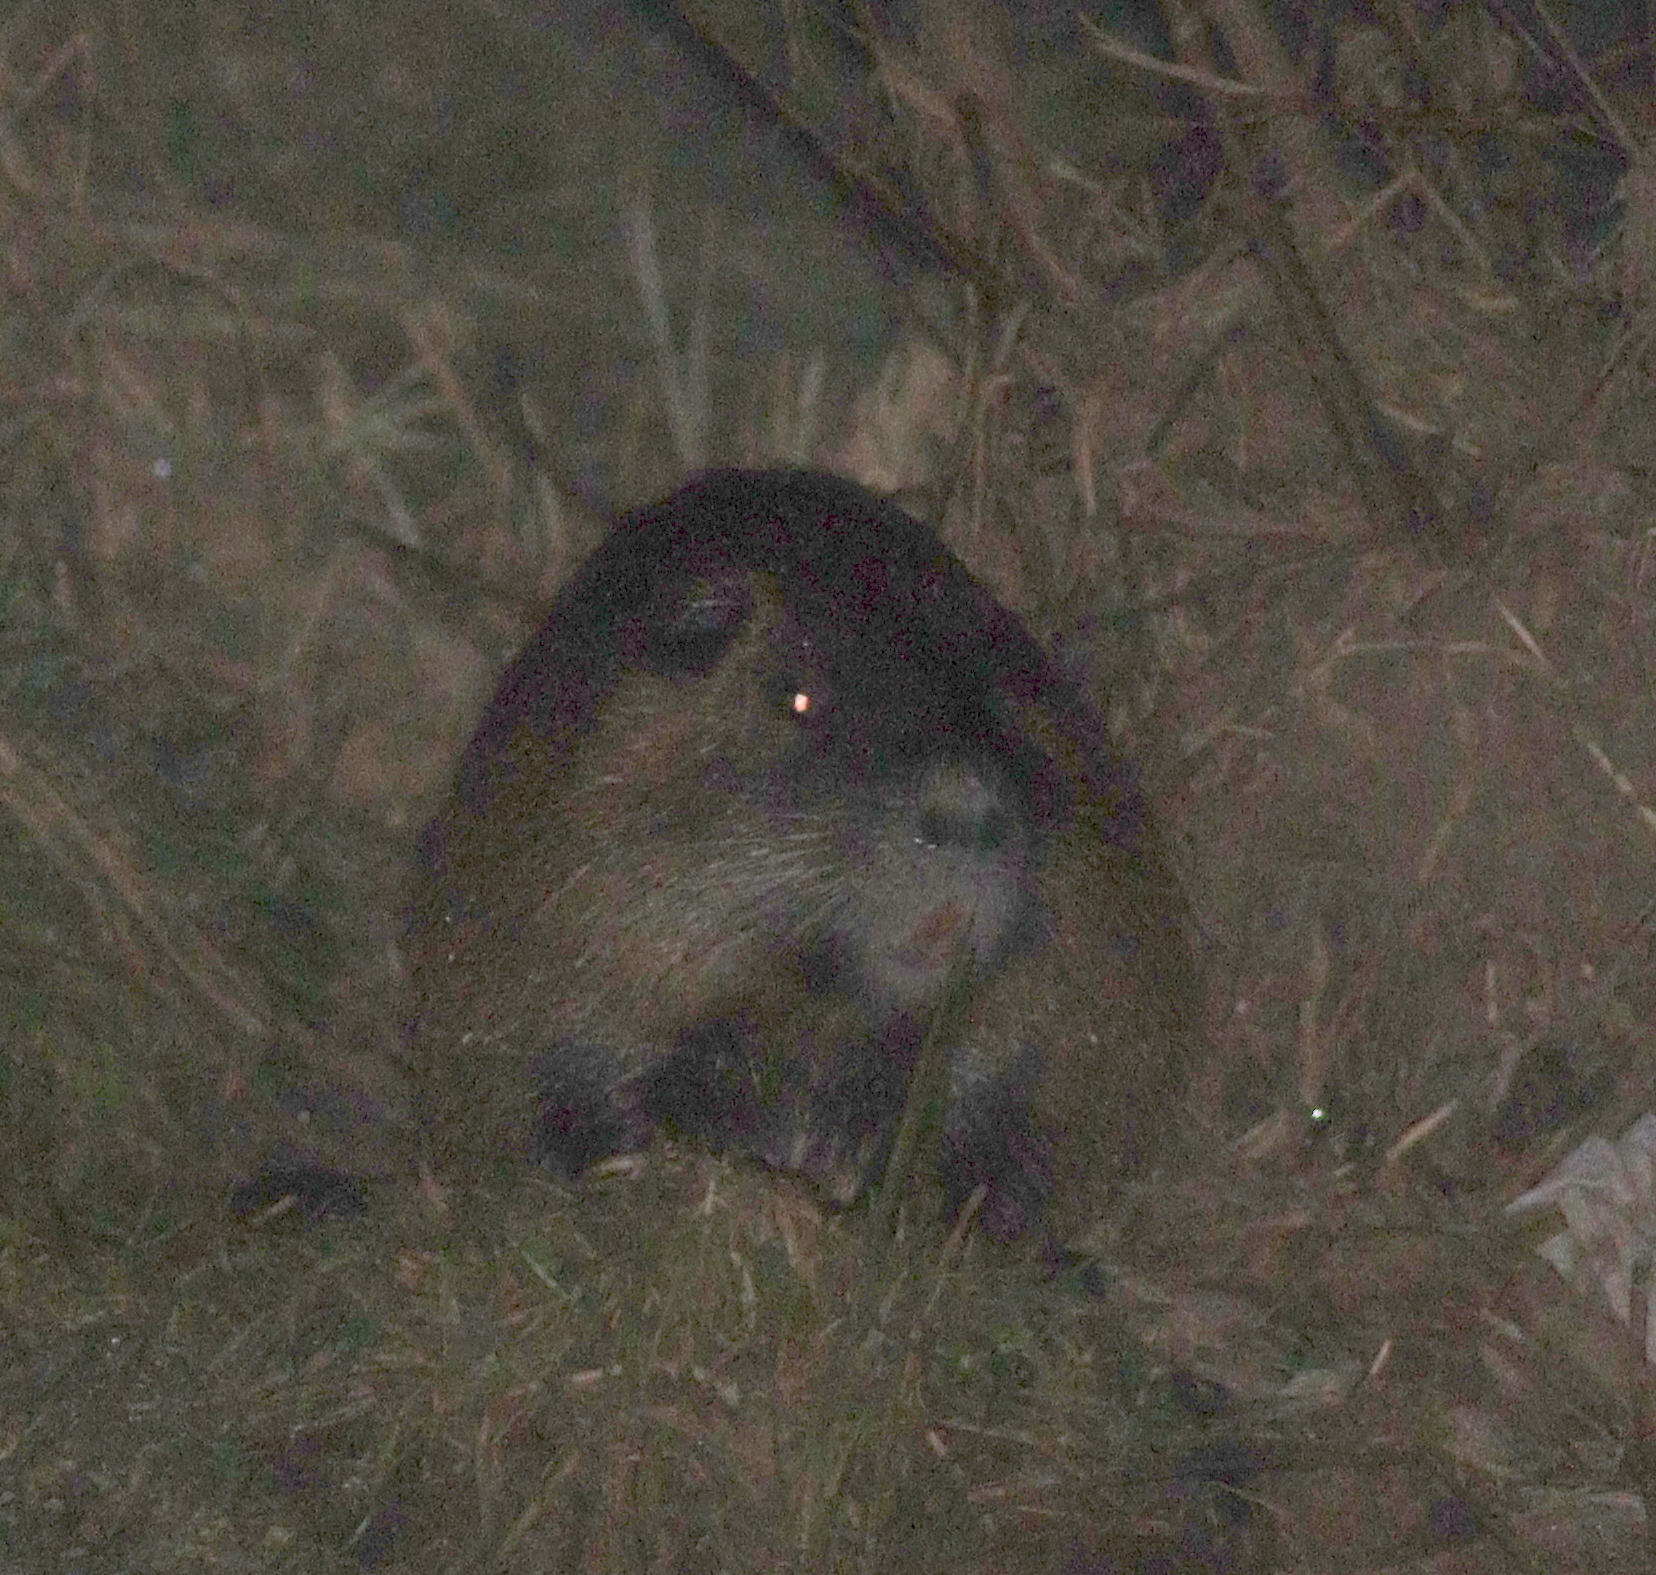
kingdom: Animalia
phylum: Chordata
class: Mammalia
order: Rodentia
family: Myocastoridae
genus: Myocastor
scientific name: Myocastor coypus
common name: Coypu
